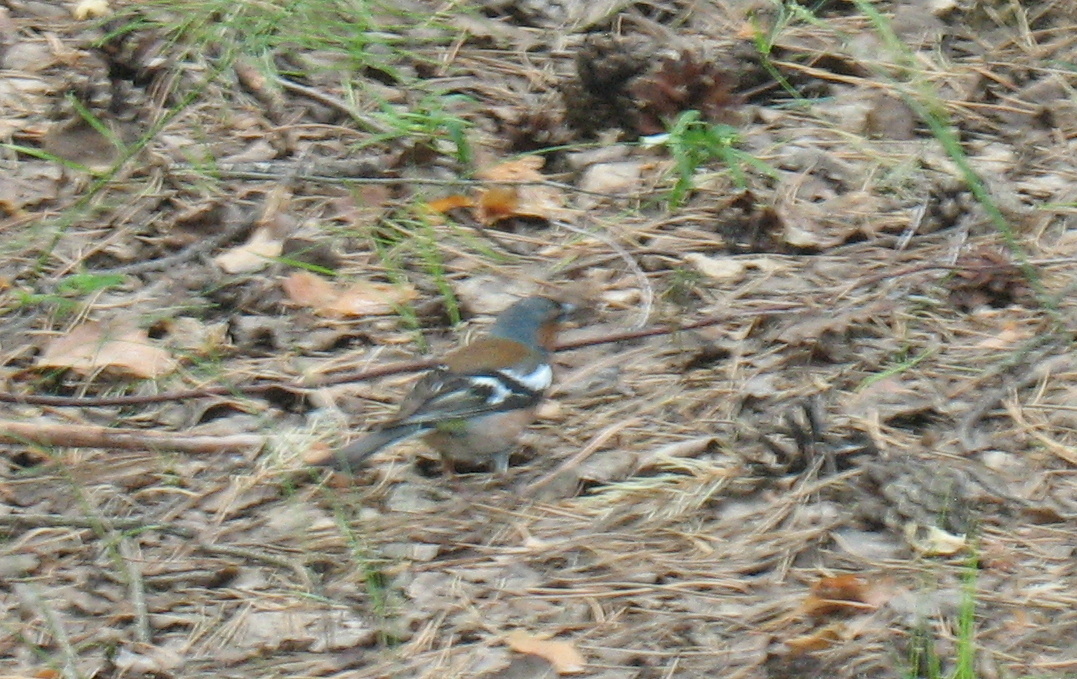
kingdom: Animalia
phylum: Chordata
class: Aves
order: Passeriformes
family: Fringillidae
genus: Fringilla
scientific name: Fringilla coelebs
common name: Common chaffinch
